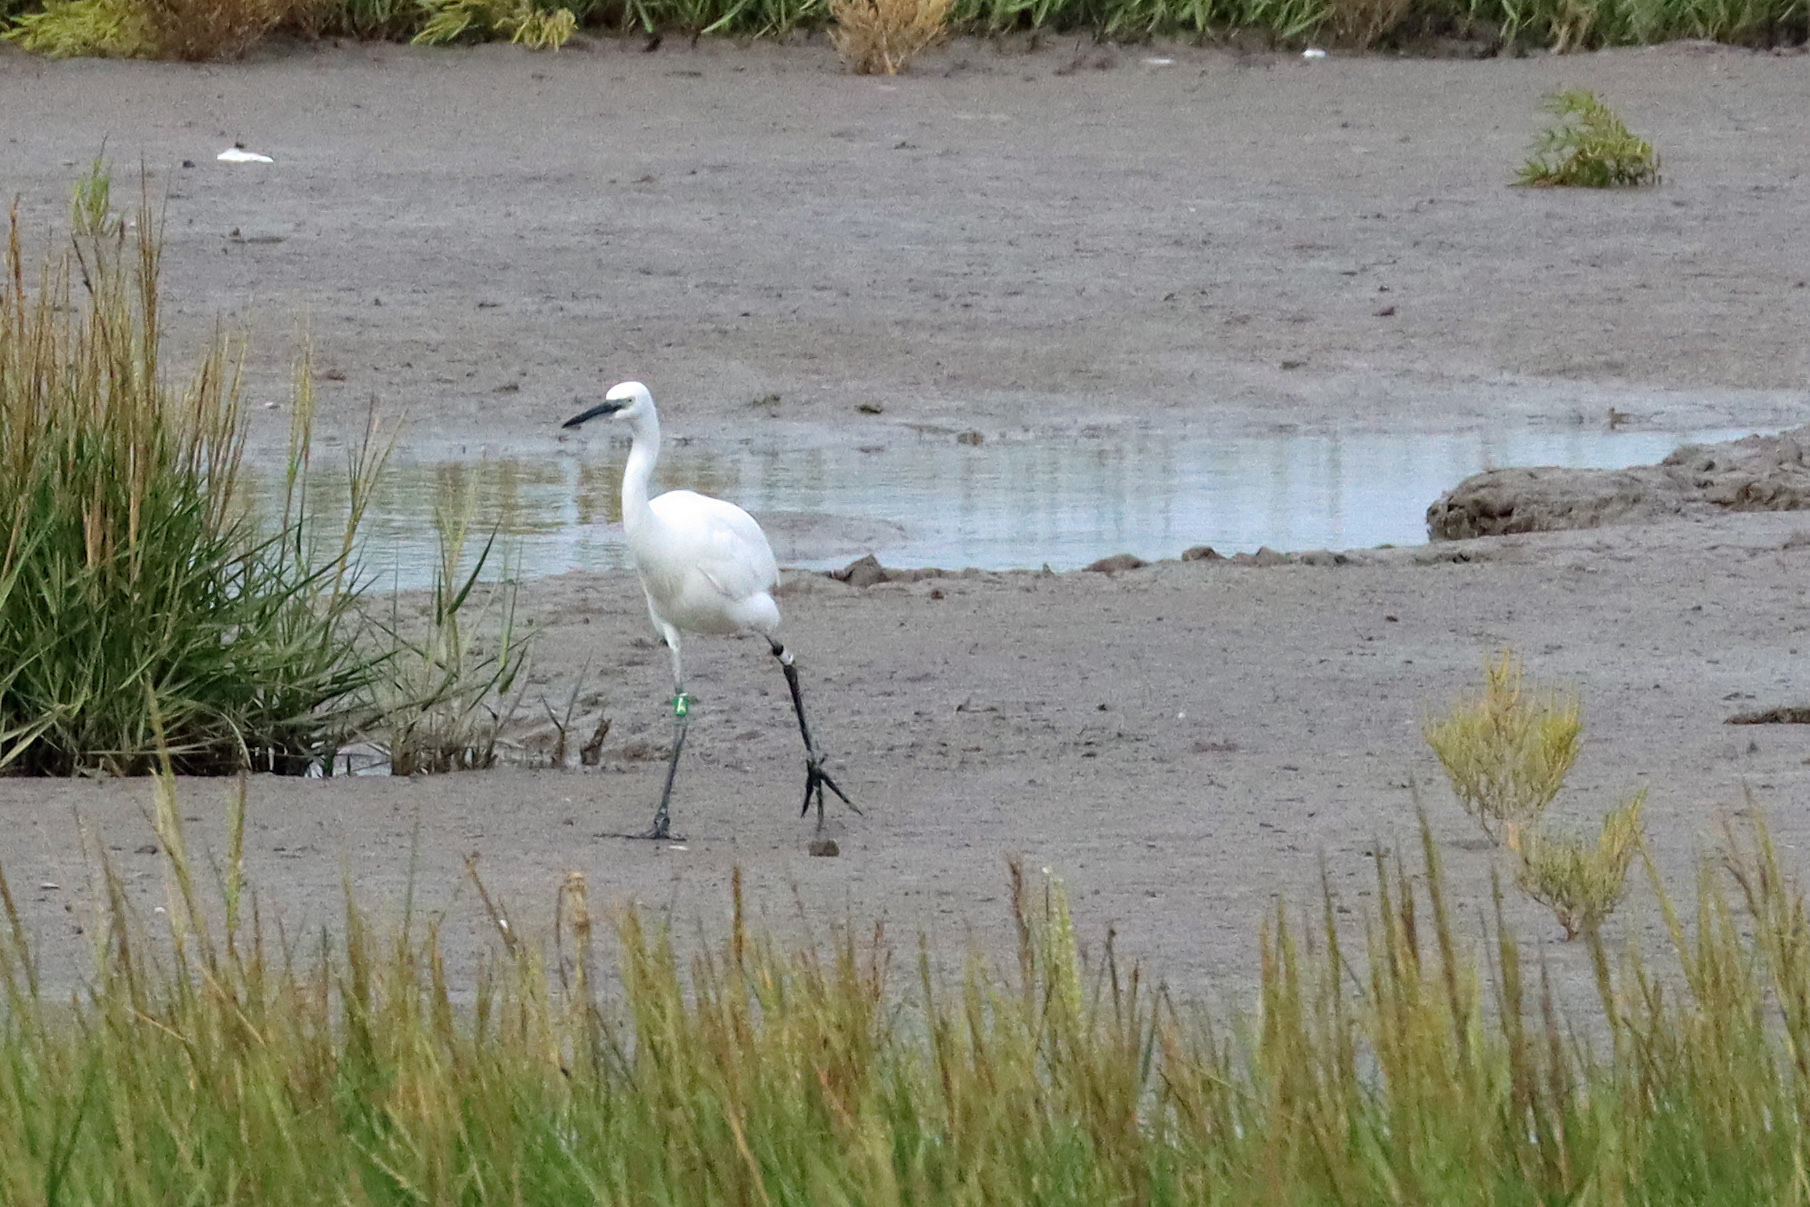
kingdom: Animalia
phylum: Chordata
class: Aves
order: Pelecaniformes
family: Ardeidae
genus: Egretta
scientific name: Egretta garzetta
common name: Little egret
